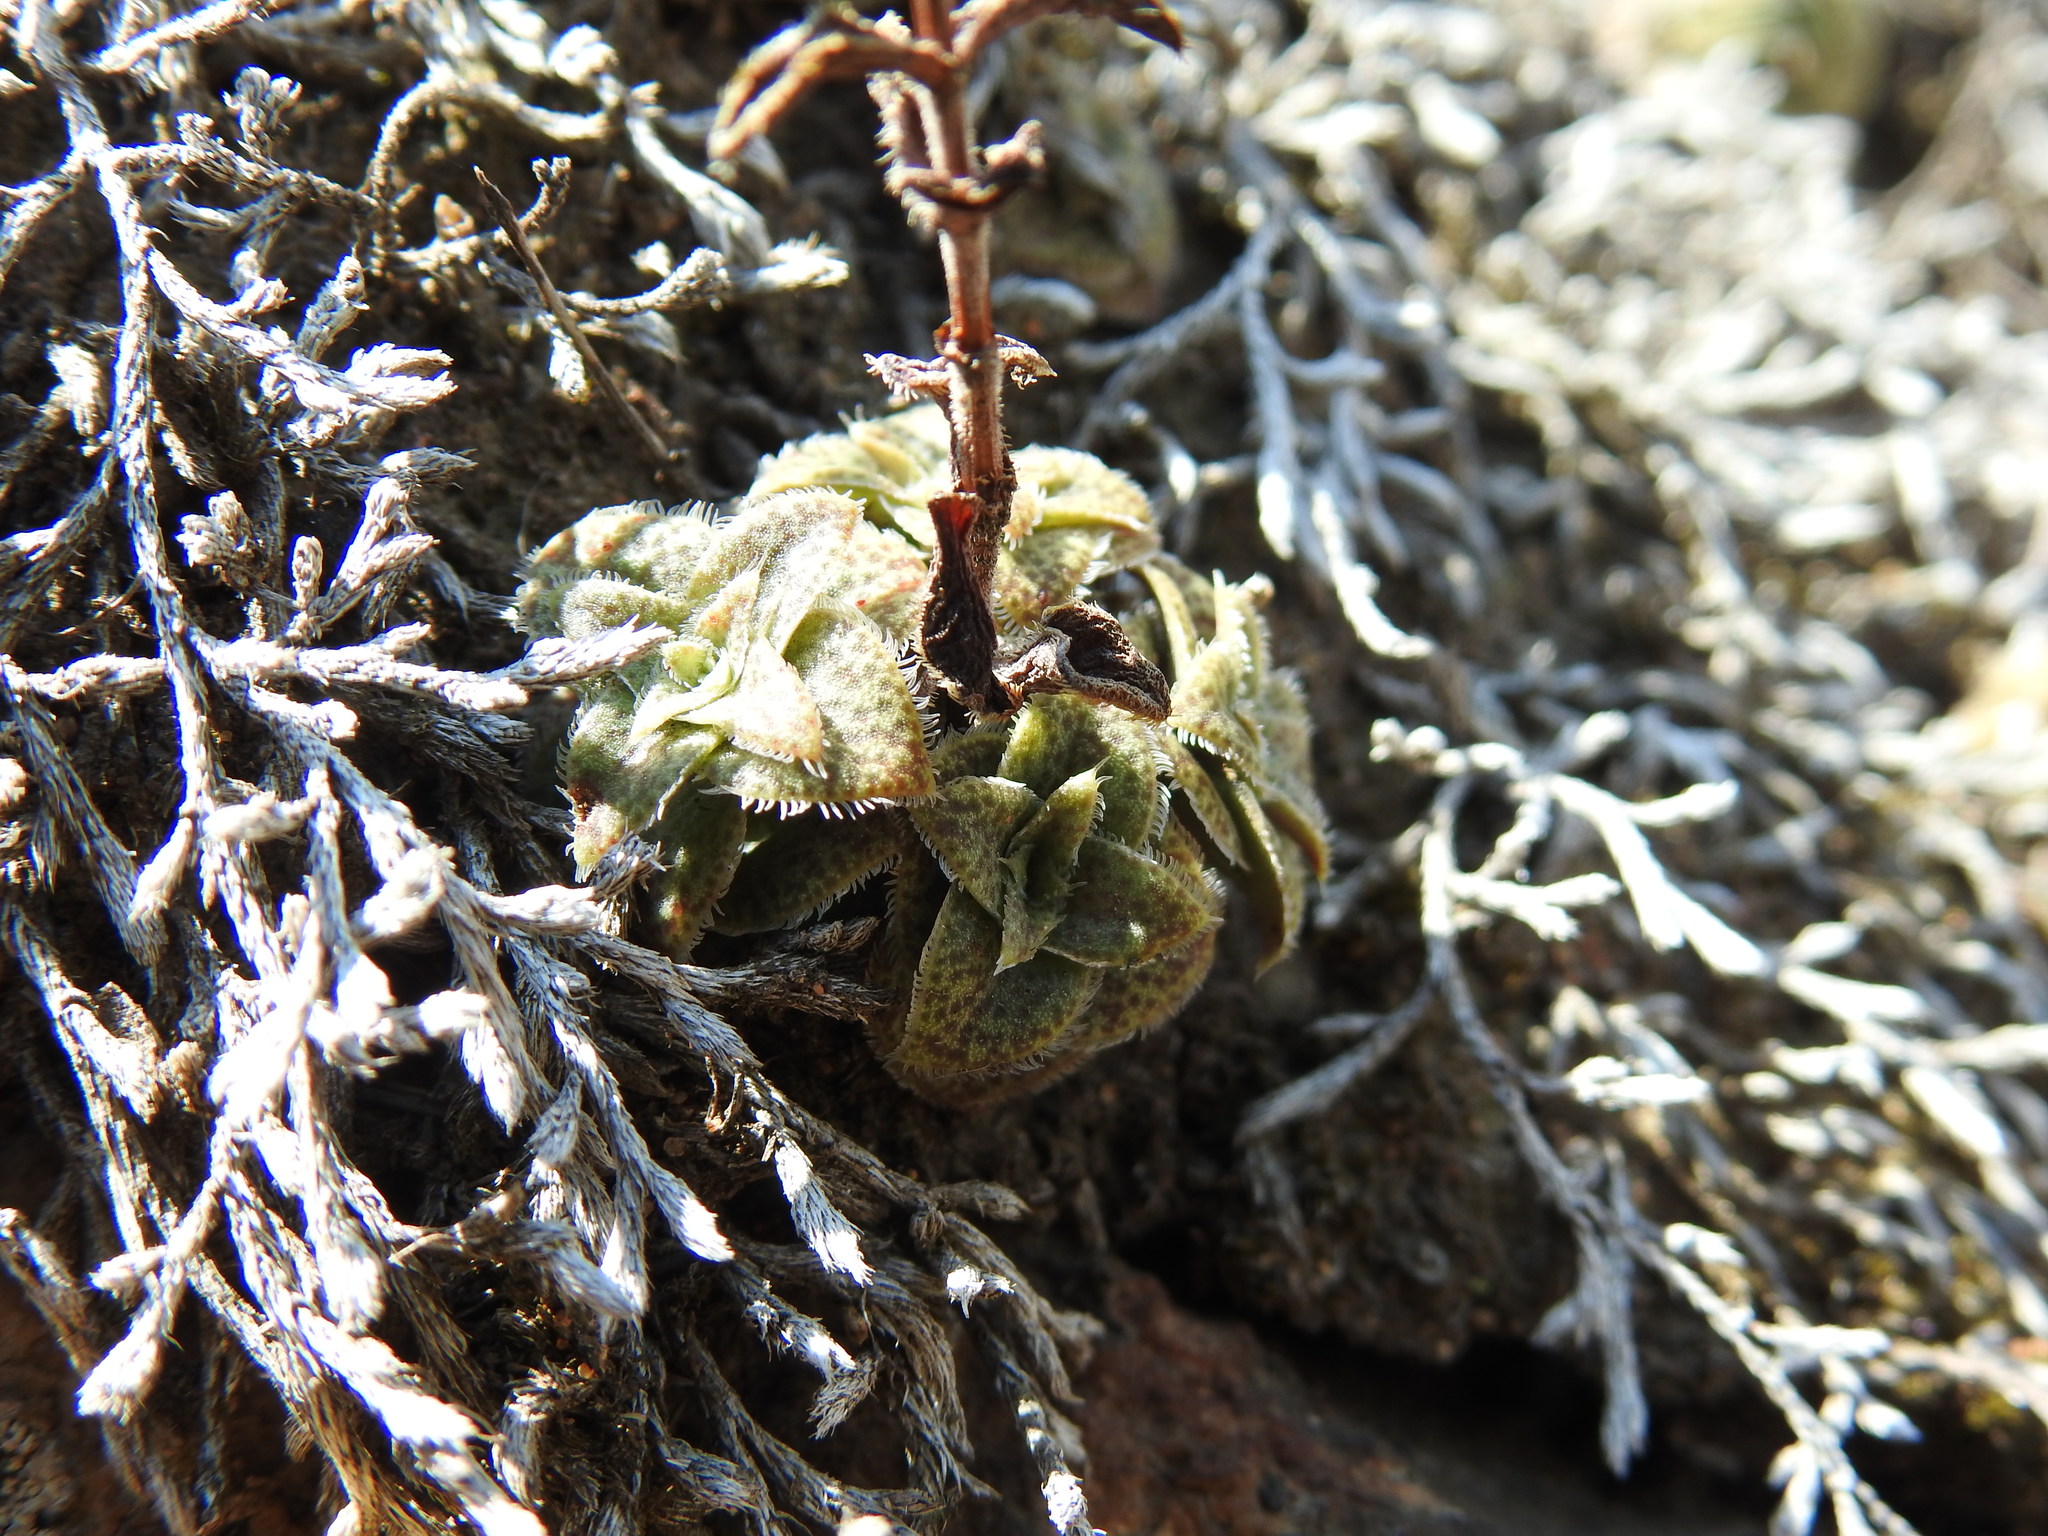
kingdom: Plantae
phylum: Tracheophyta
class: Magnoliopsida
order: Saxifragales
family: Crassulaceae
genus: Crassula
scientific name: Crassula setulosa
